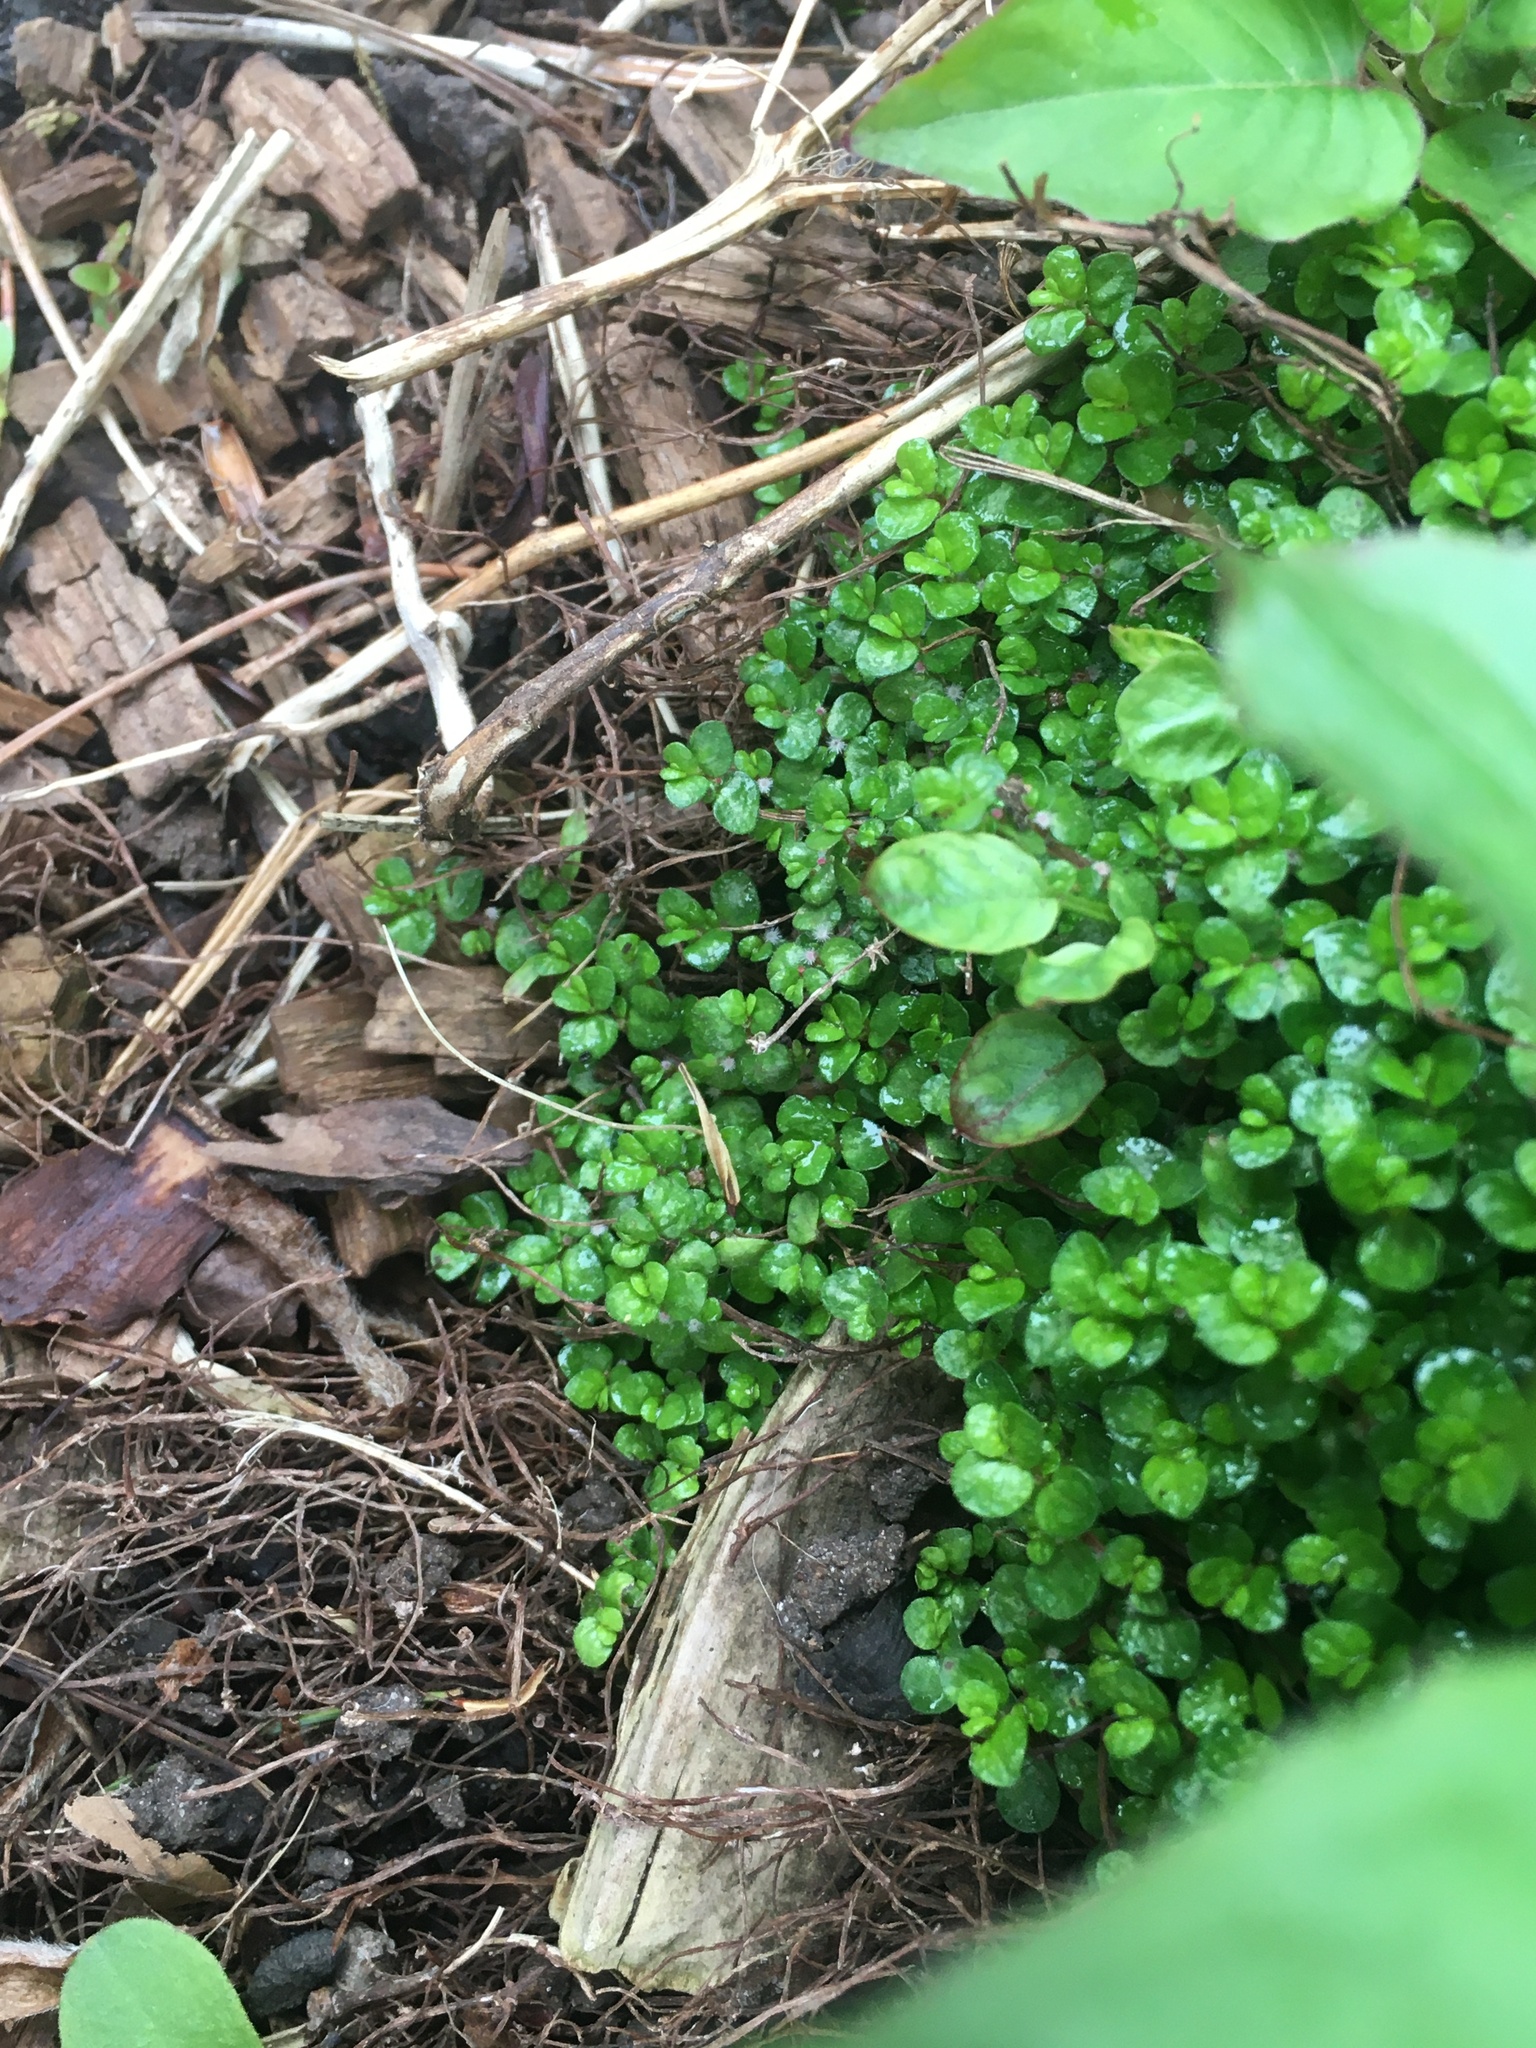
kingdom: Plantae
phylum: Tracheophyta
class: Magnoliopsida
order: Rosales
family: Urticaceae
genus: Soleirolia
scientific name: Soleirolia soleirolii
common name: Mind-your-own-business
